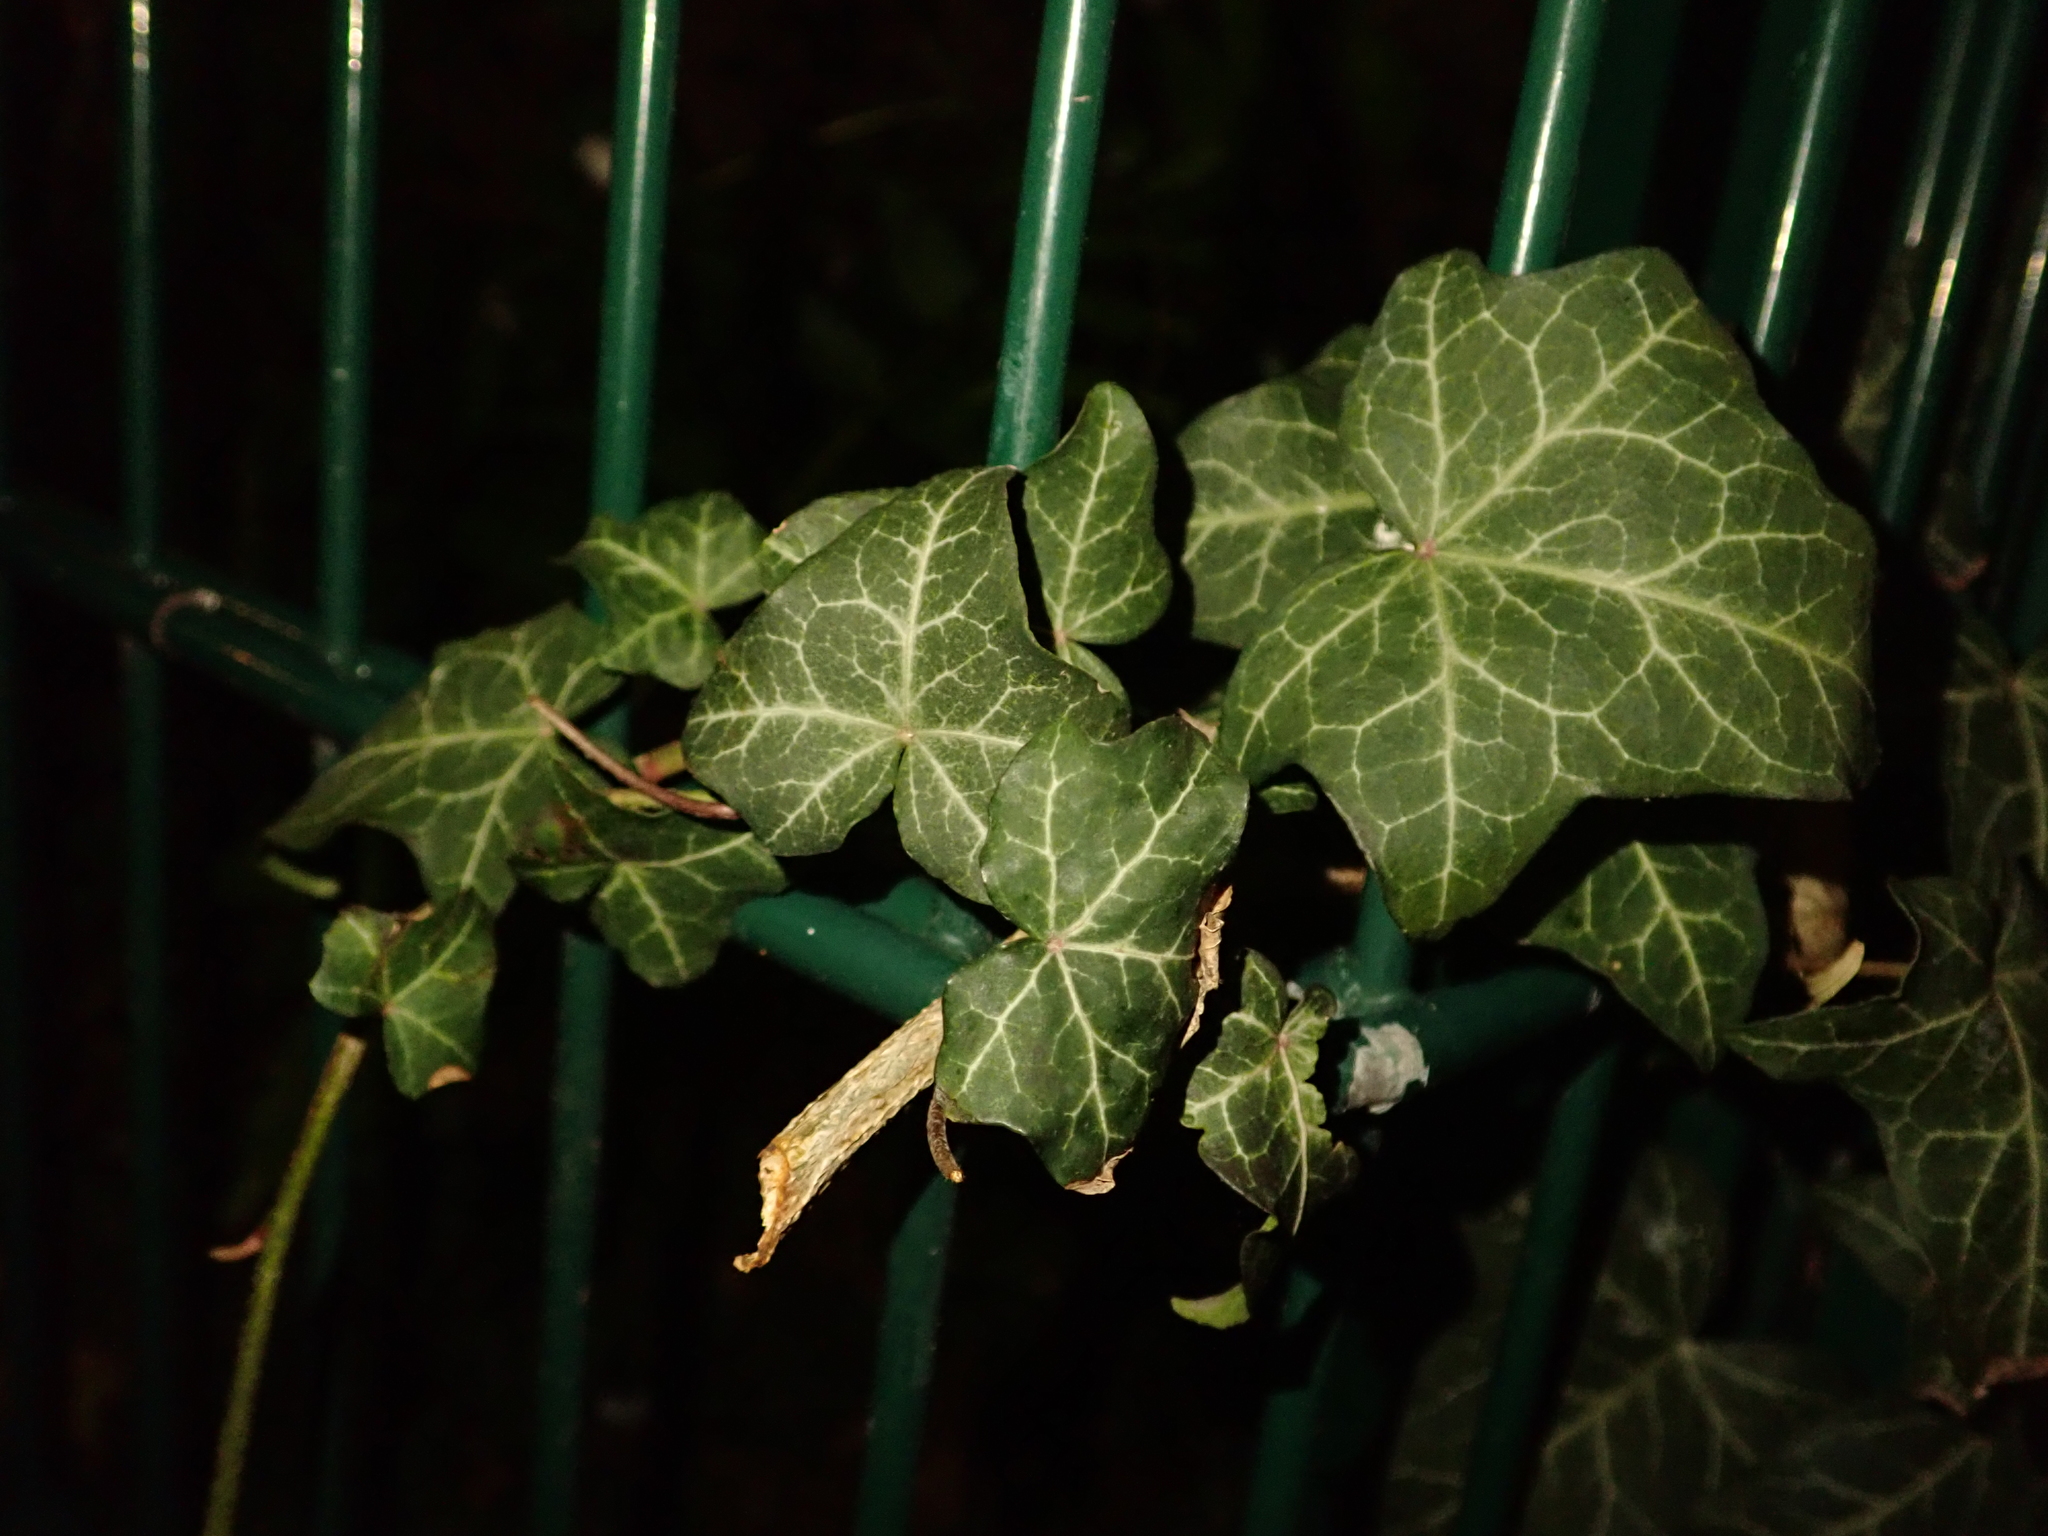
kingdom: Plantae
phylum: Tracheophyta
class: Magnoliopsida
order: Apiales
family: Araliaceae
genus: Hedera
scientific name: Hedera helix
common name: Ivy
